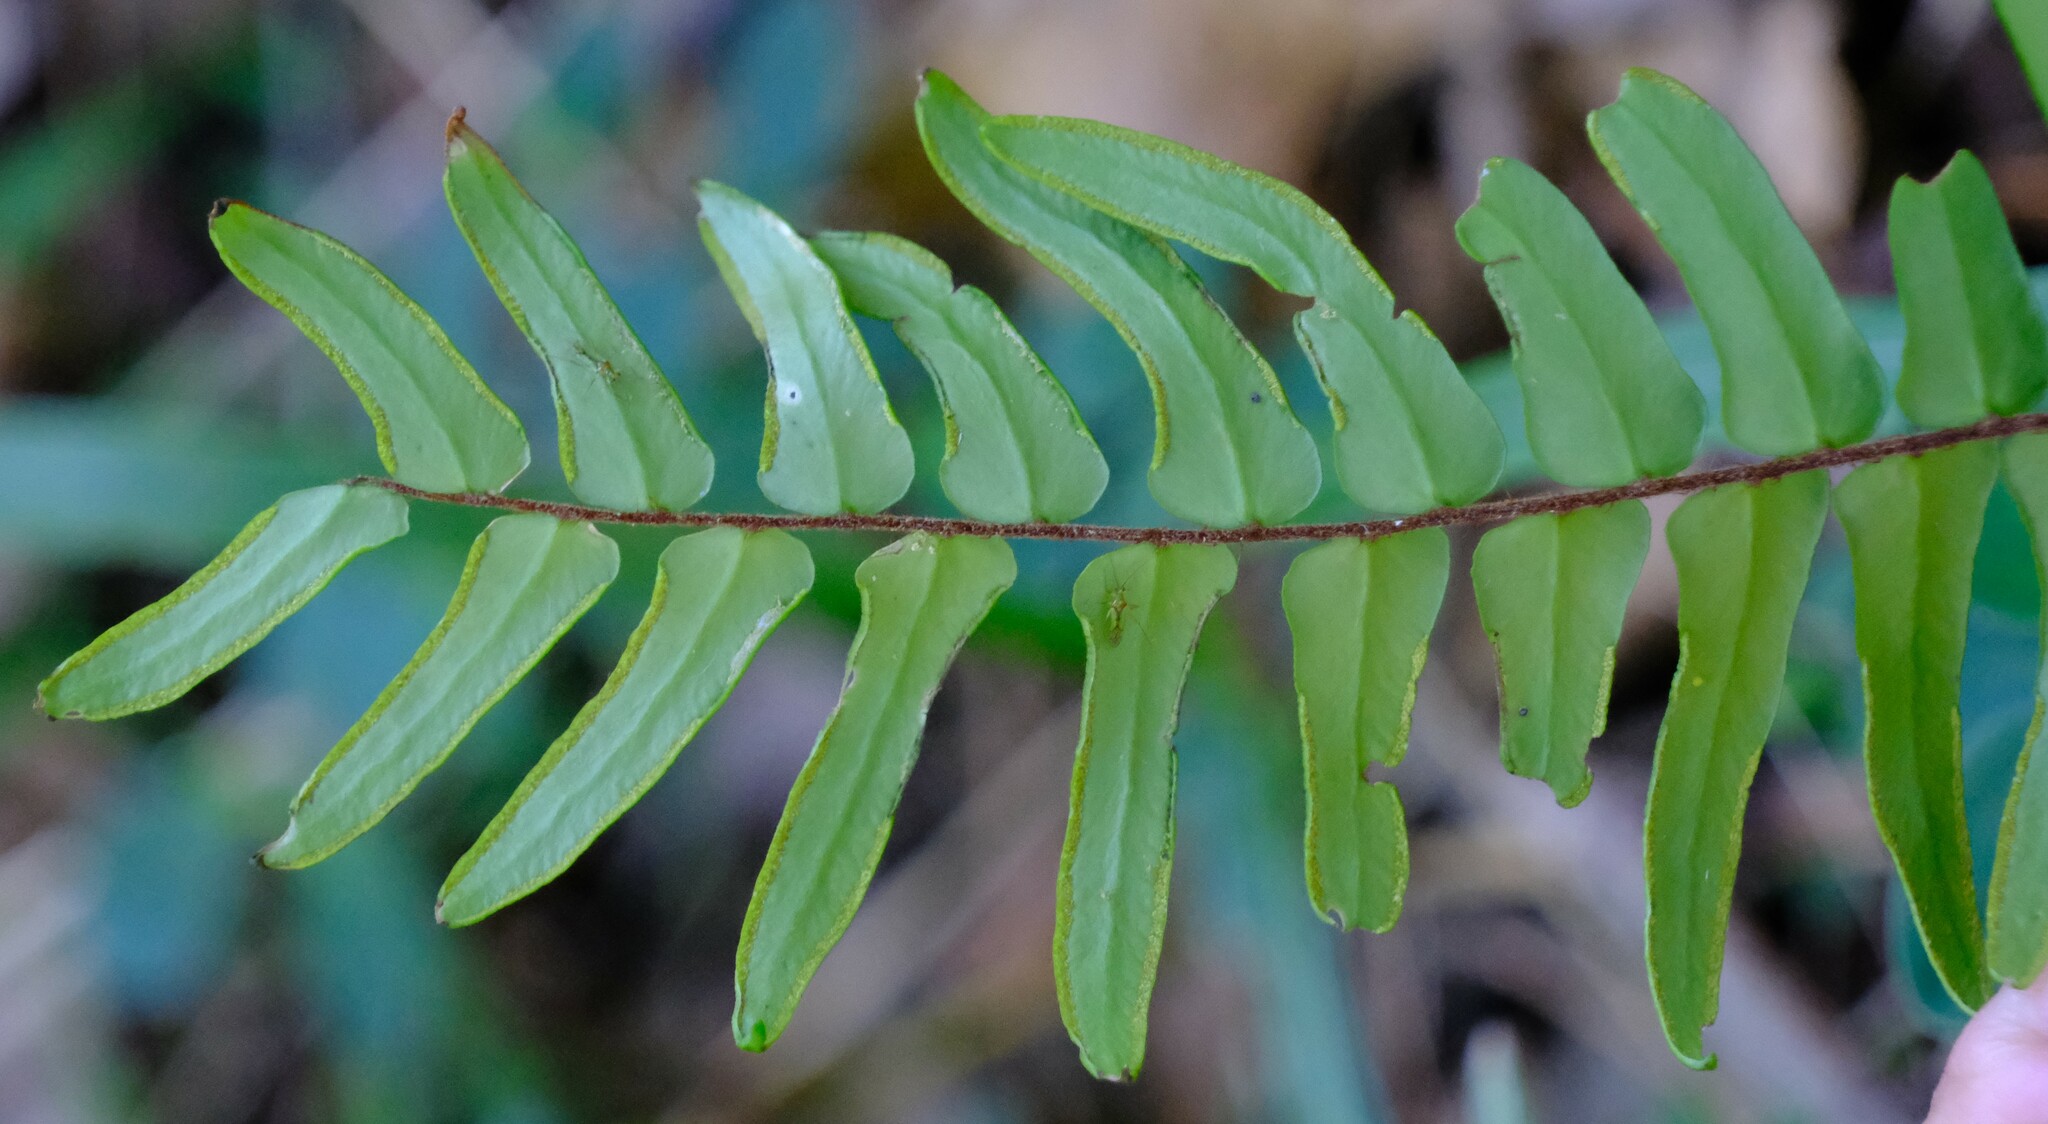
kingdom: Plantae
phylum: Tracheophyta
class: Polypodiopsida
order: Polypodiales
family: Pteridaceae
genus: Pellaea
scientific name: Pellaea falcata
